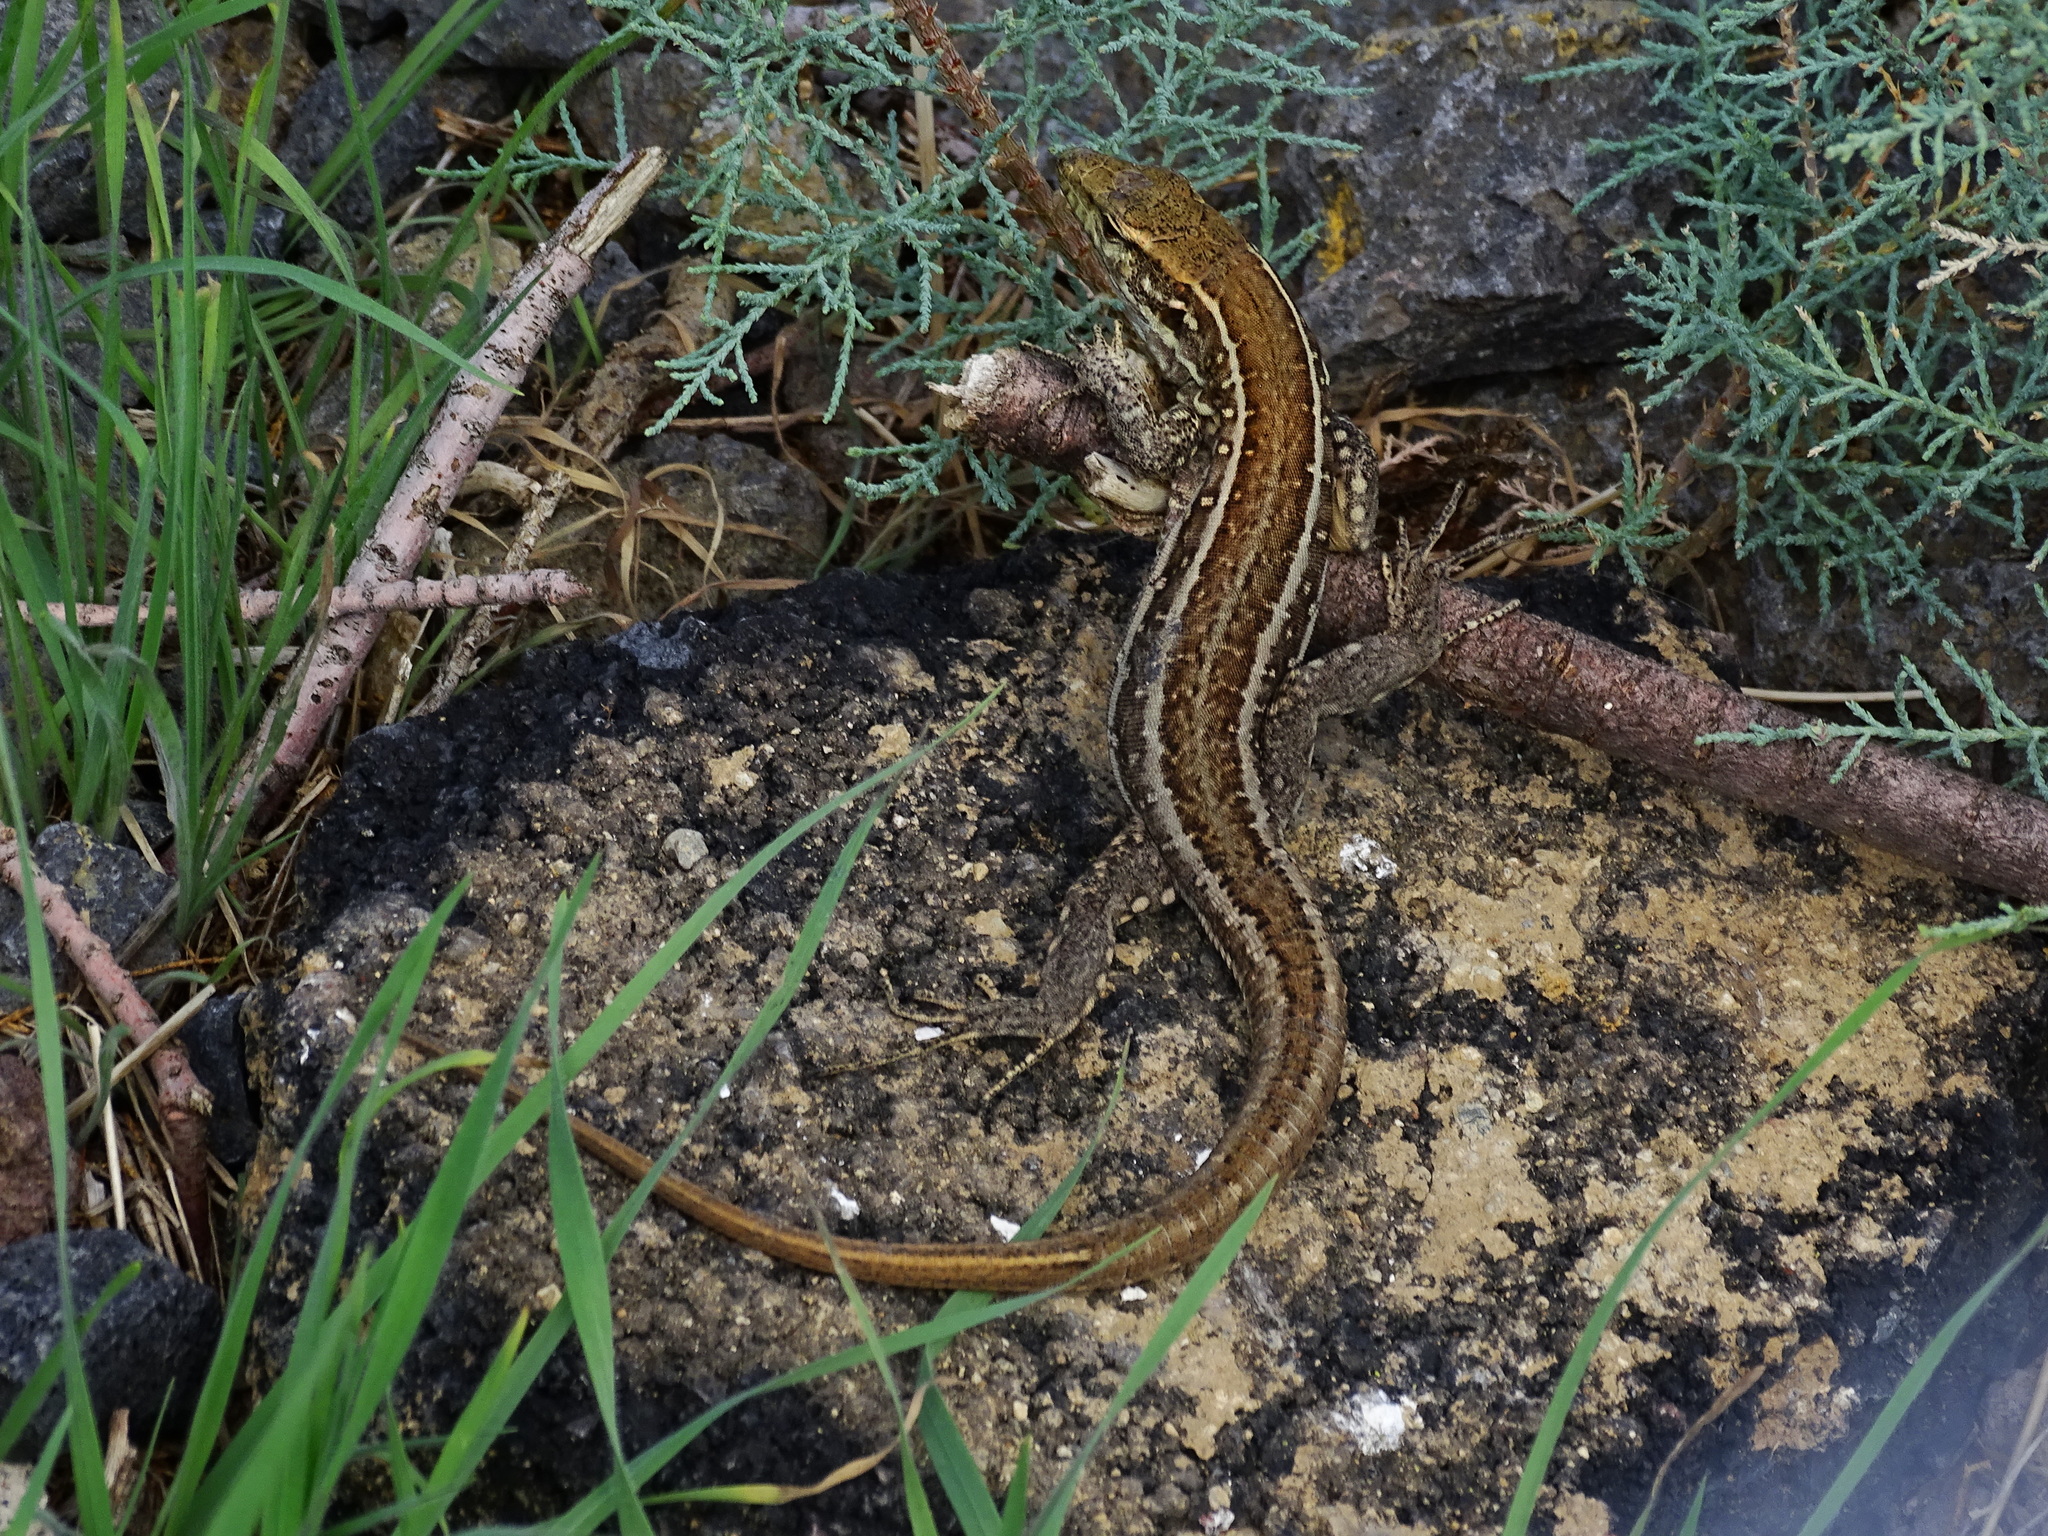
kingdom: Animalia
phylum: Chordata
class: Squamata
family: Lacertidae
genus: Gallotia
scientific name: Gallotia galloti
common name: Gallot's lizard
